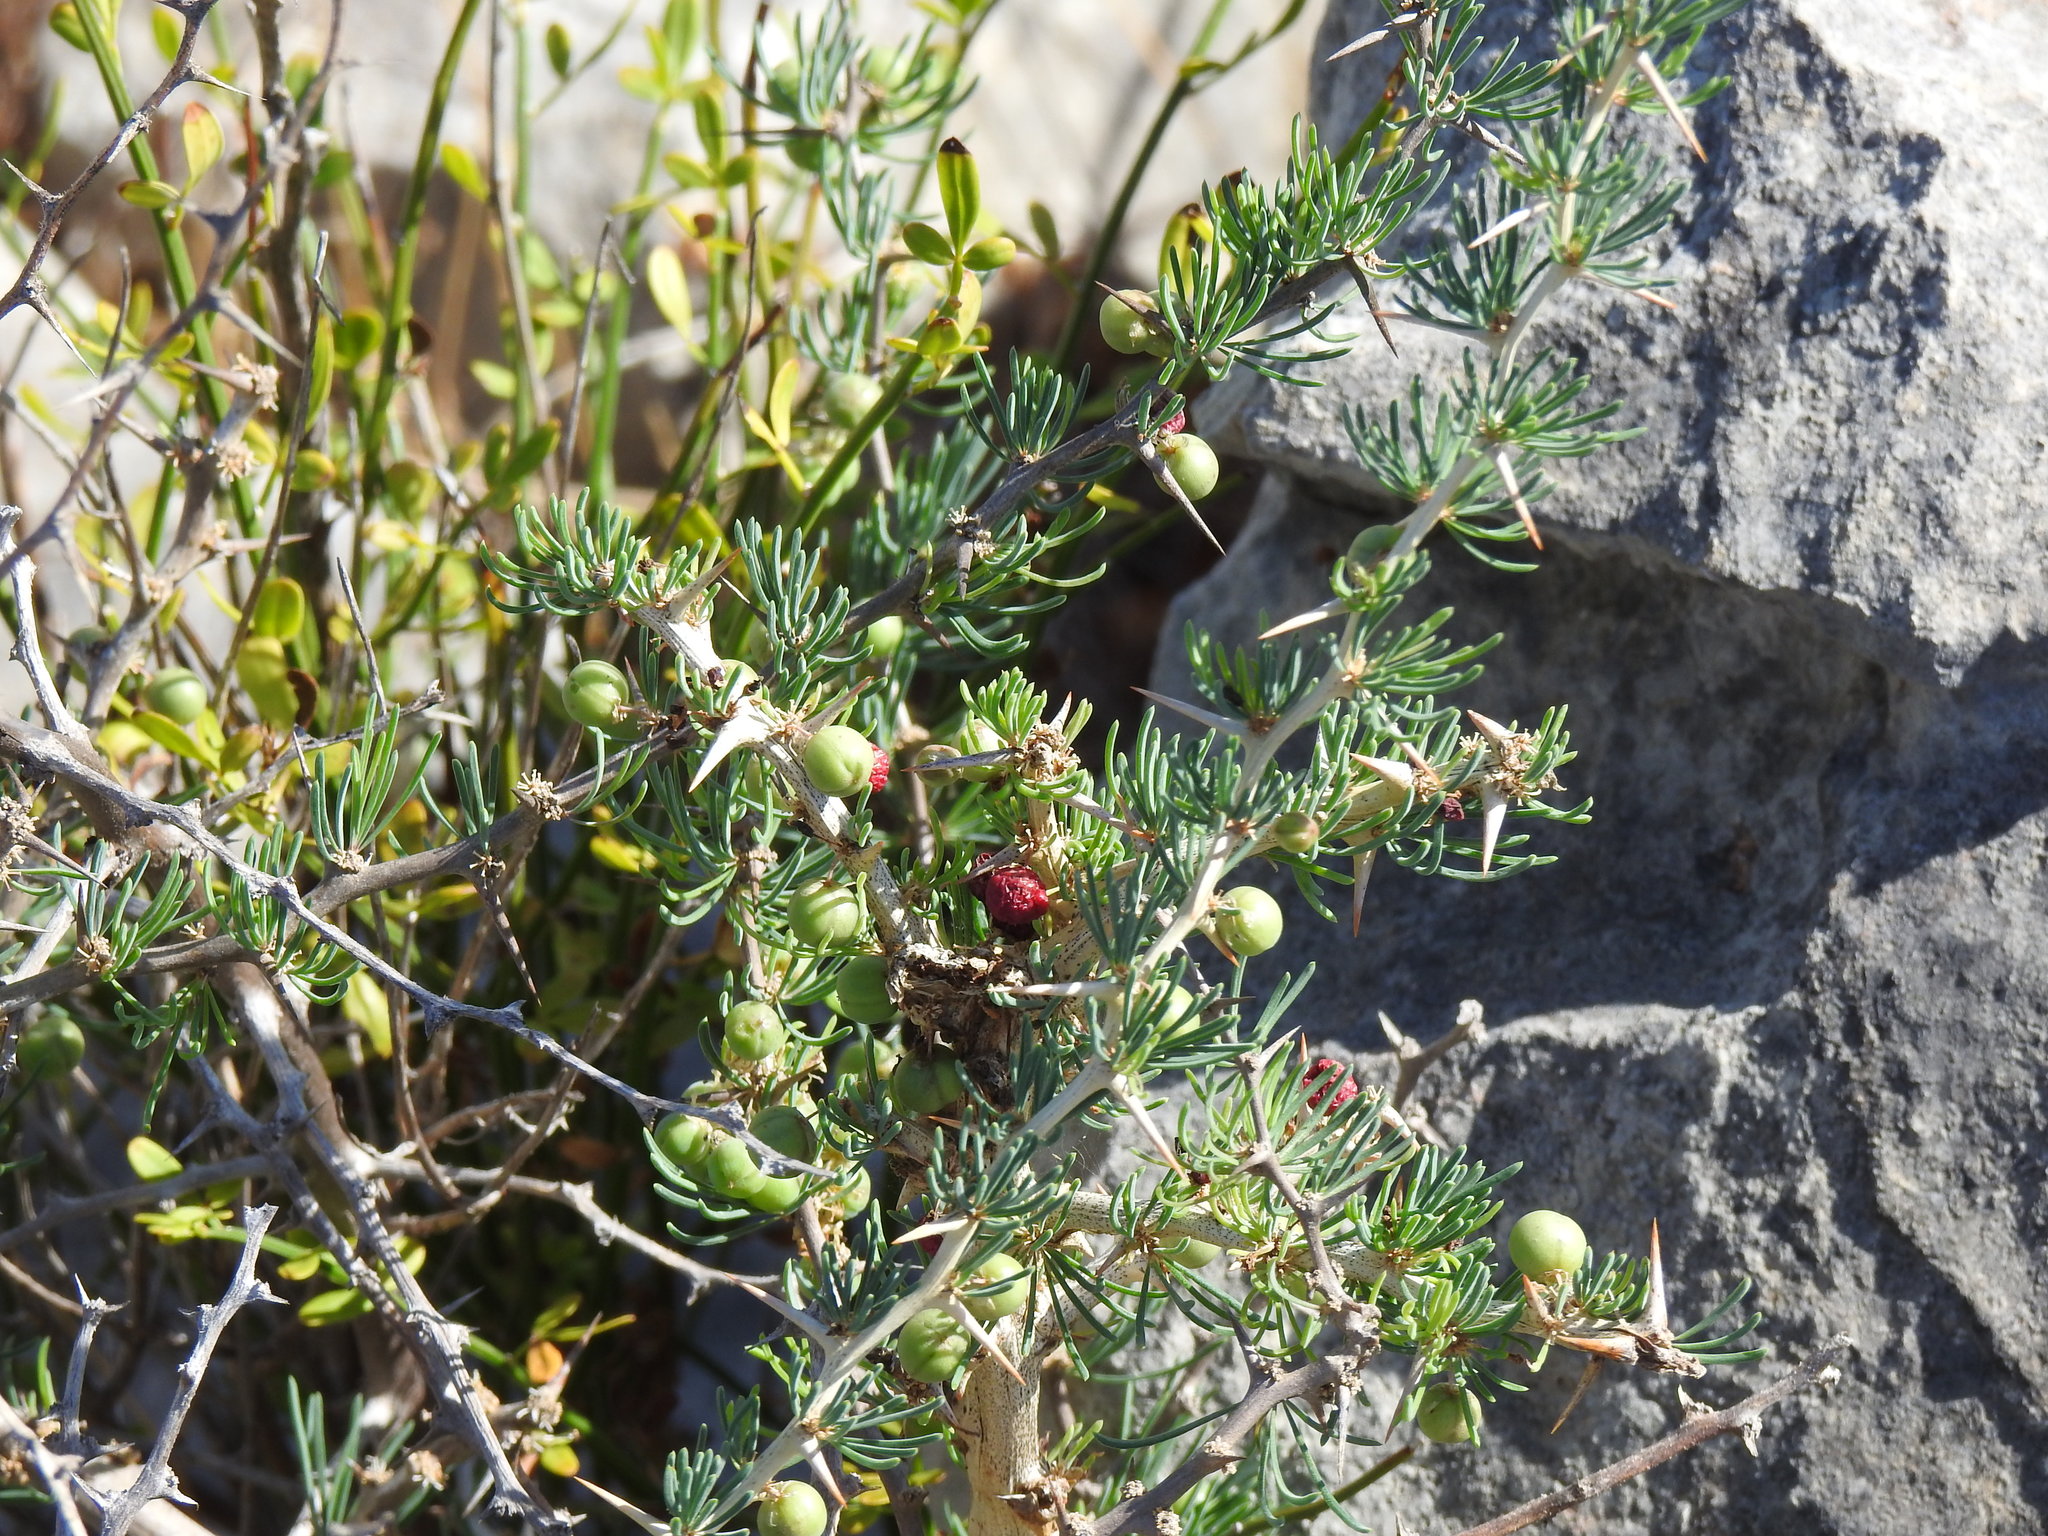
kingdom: Plantae
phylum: Tracheophyta
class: Liliopsida
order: Asparagales
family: Asparagaceae
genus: Asparagus
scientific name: Asparagus albus
